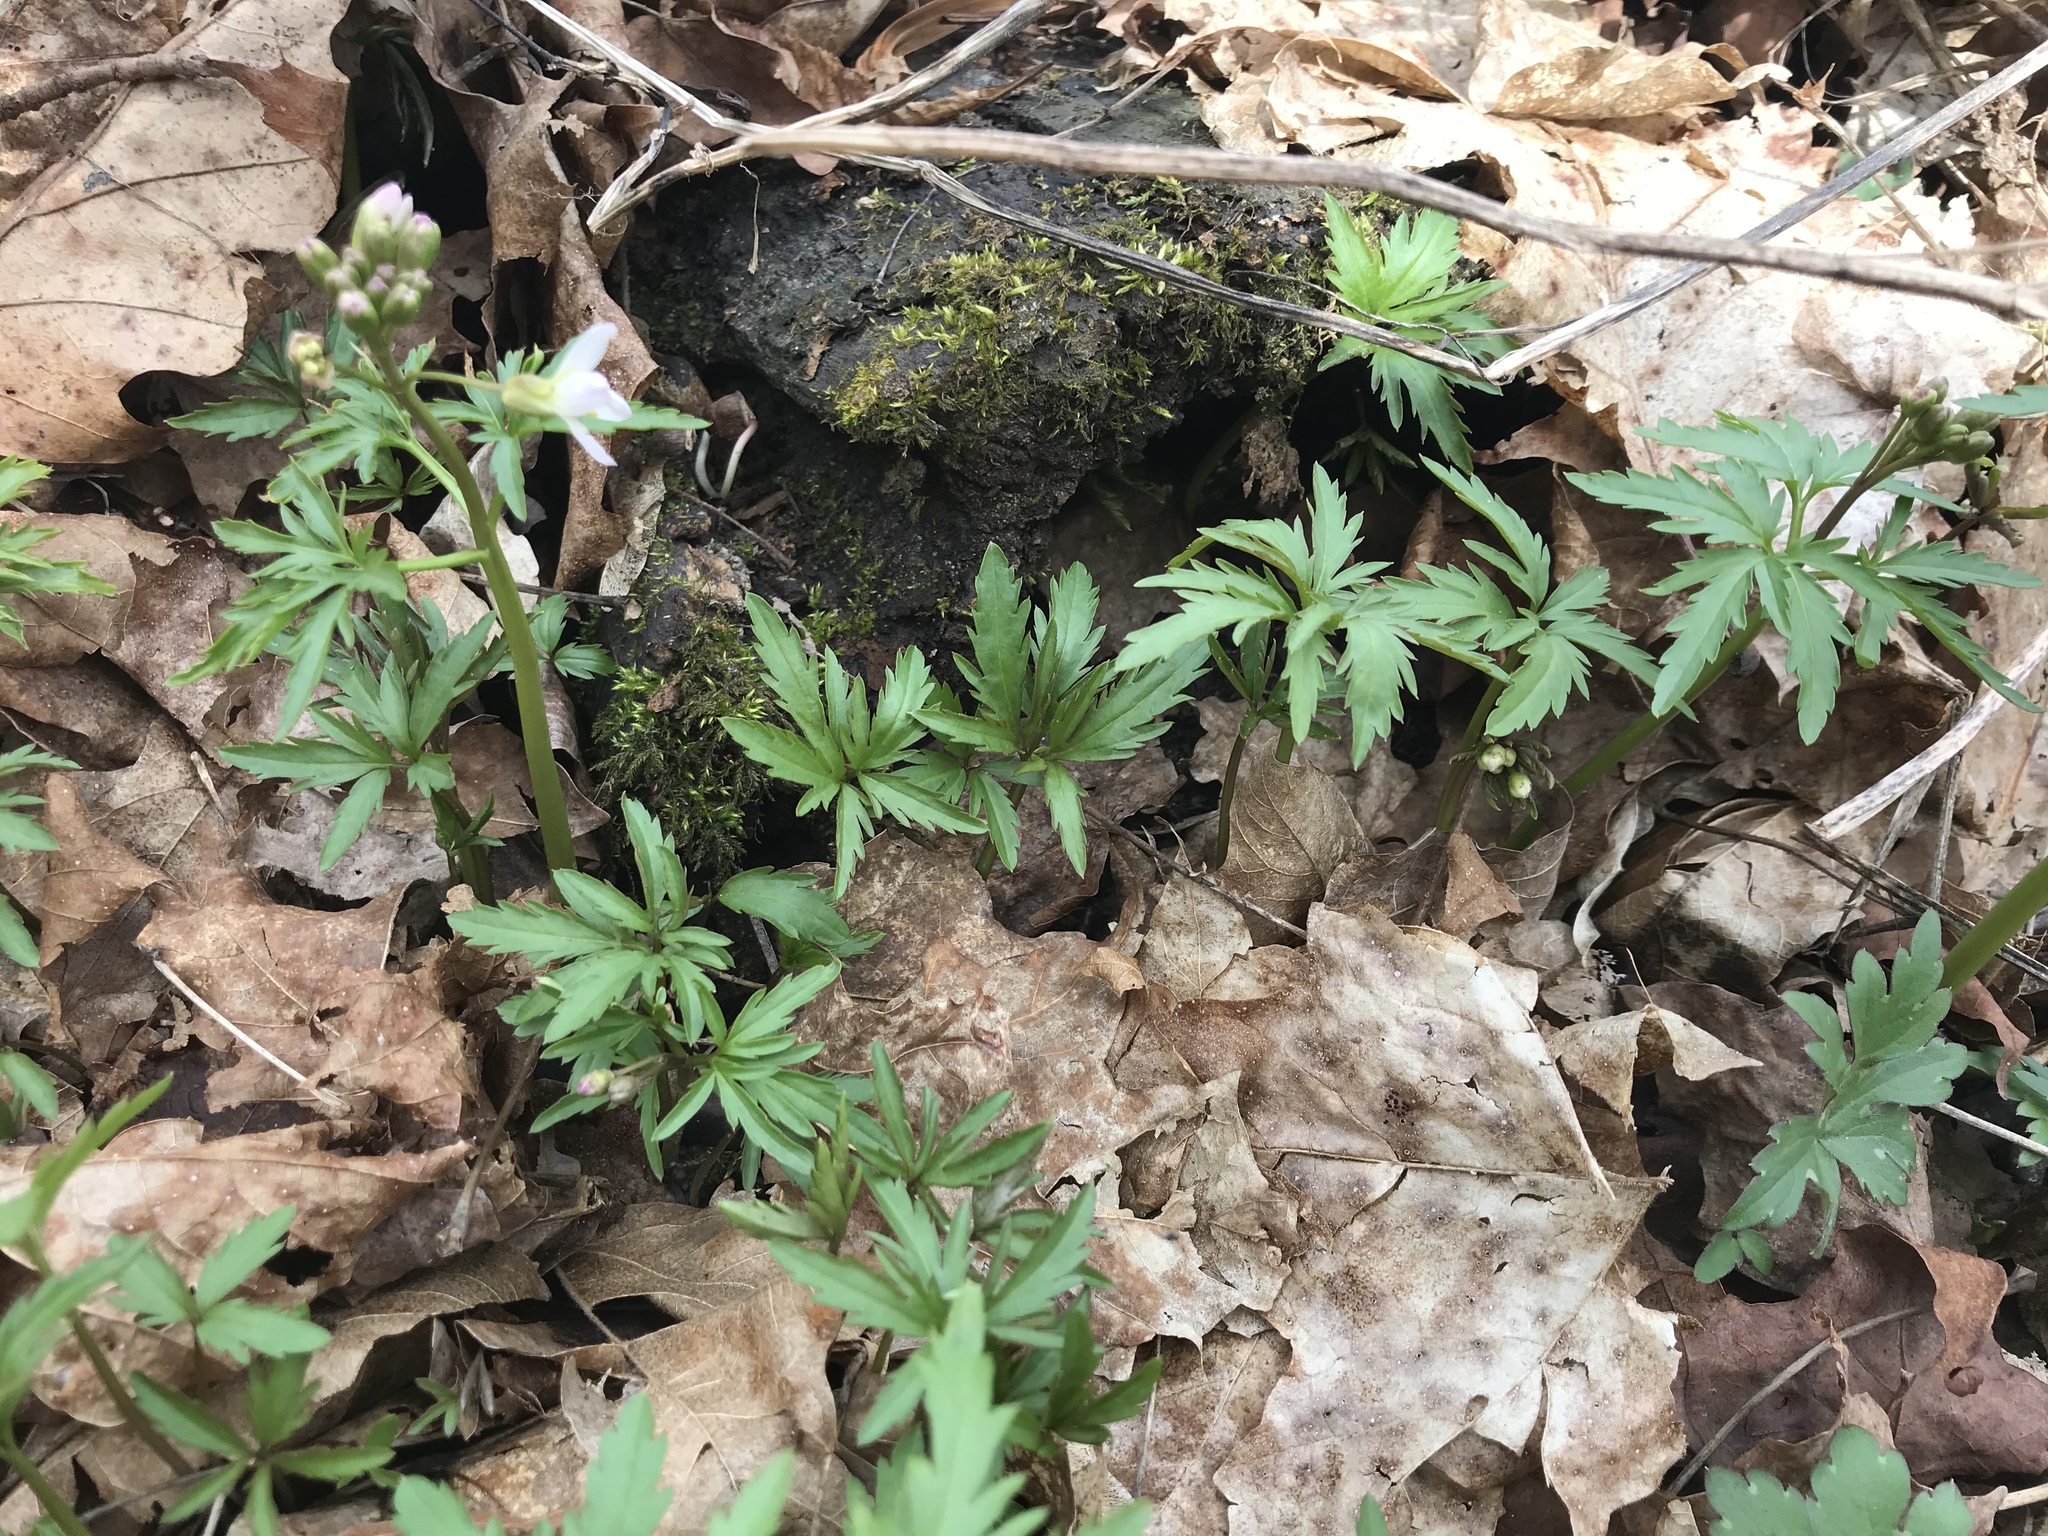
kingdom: Plantae
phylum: Tracheophyta
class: Magnoliopsida
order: Brassicales
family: Brassicaceae
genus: Cardamine
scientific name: Cardamine concatenata
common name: Cut-leaf toothcup
